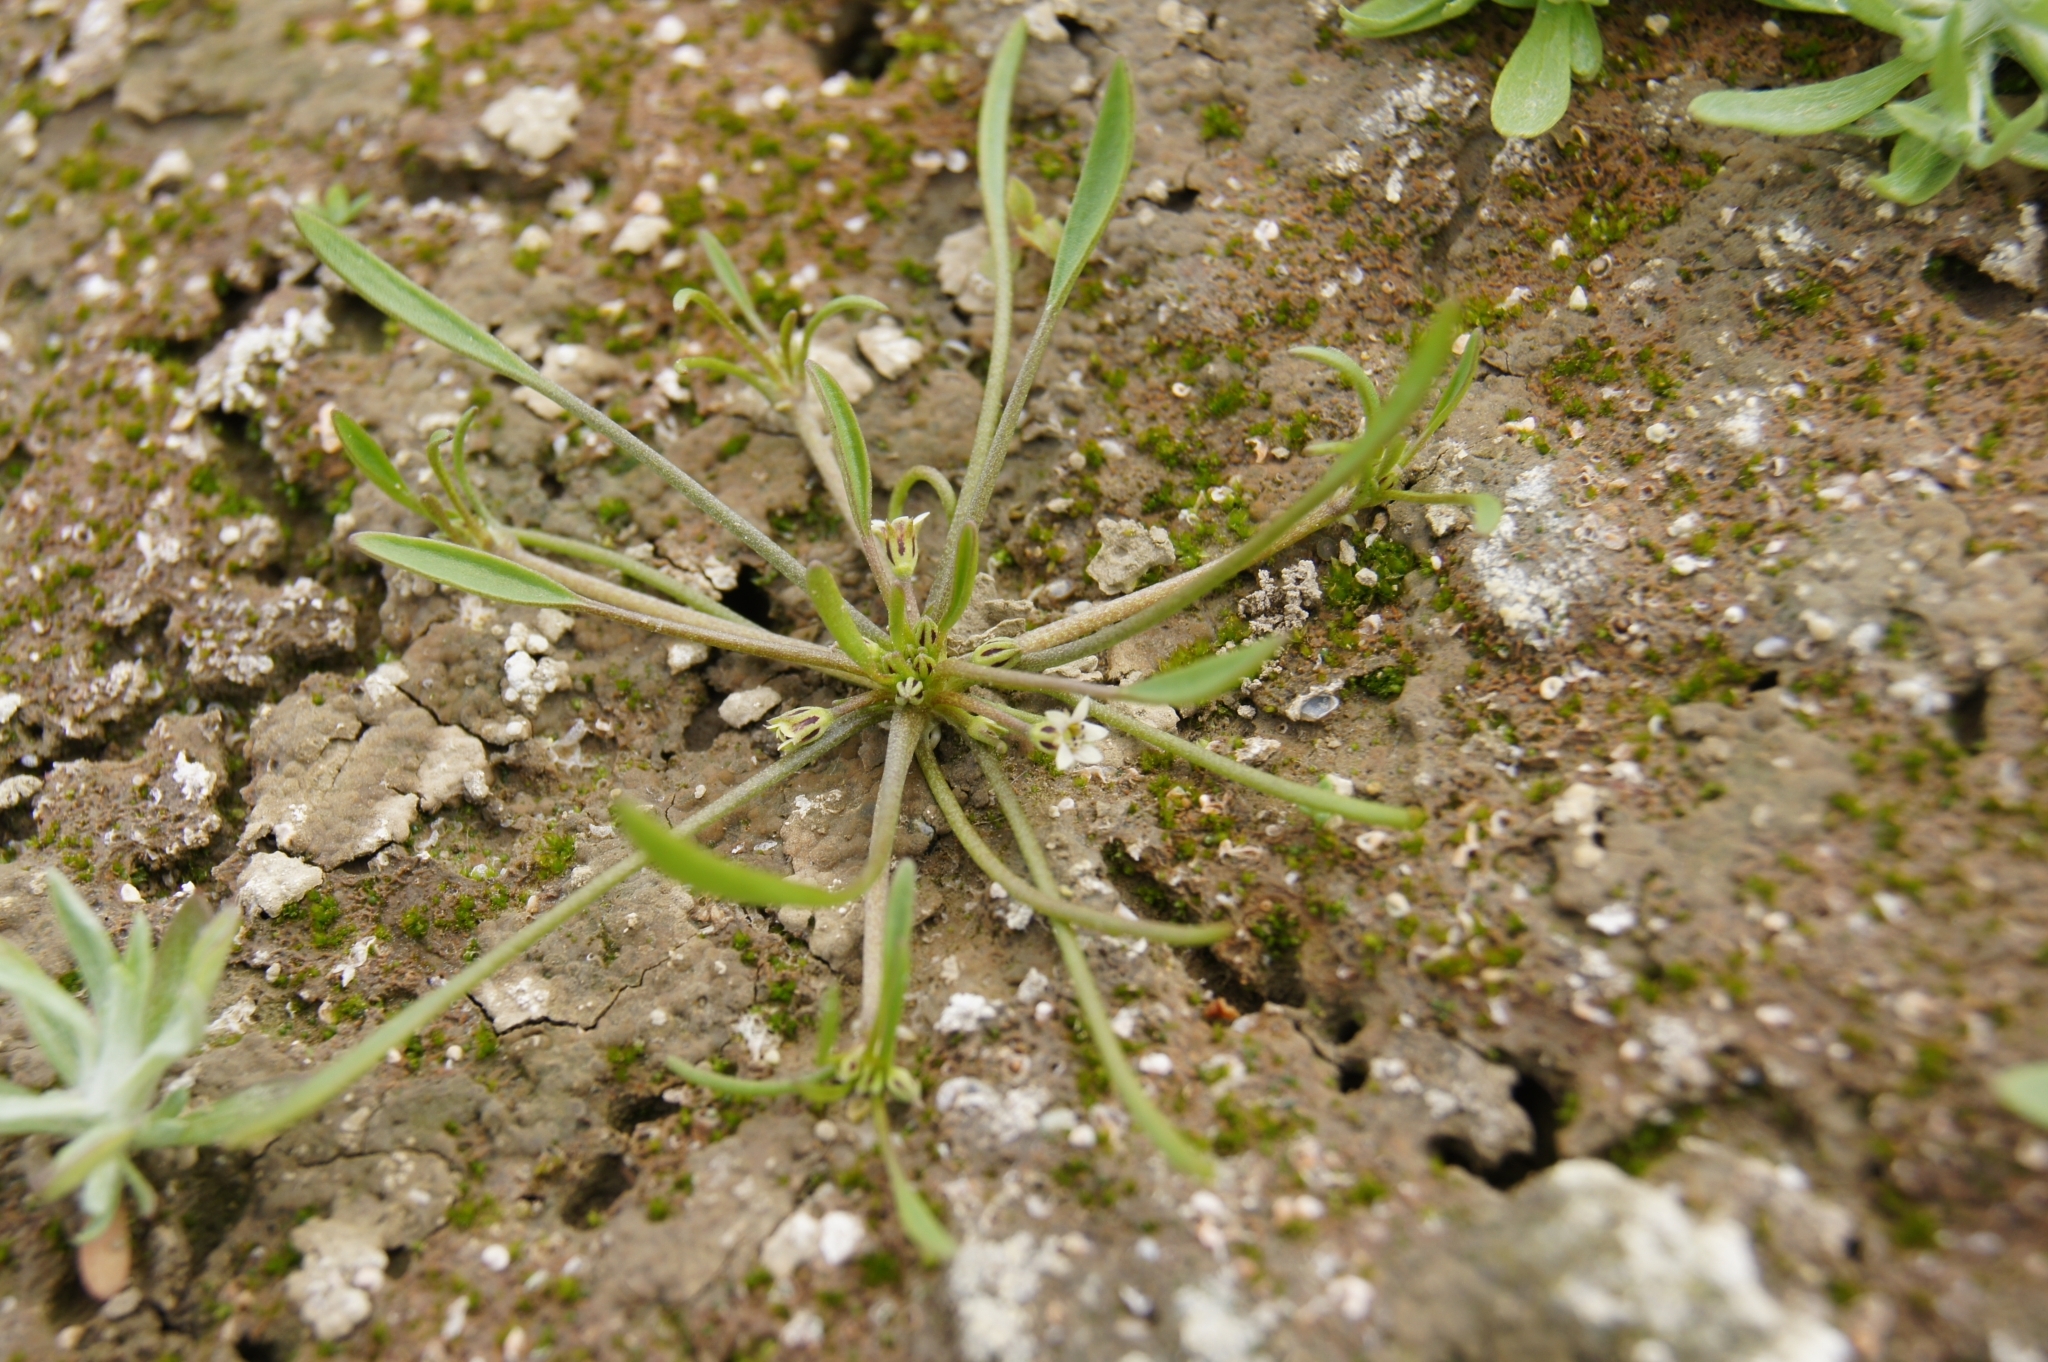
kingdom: Plantae
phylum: Tracheophyta
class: Magnoliopsida
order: Lamiales
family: Scrophulariaceae
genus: Limosella
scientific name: Limosella aquatica
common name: Mudwort
